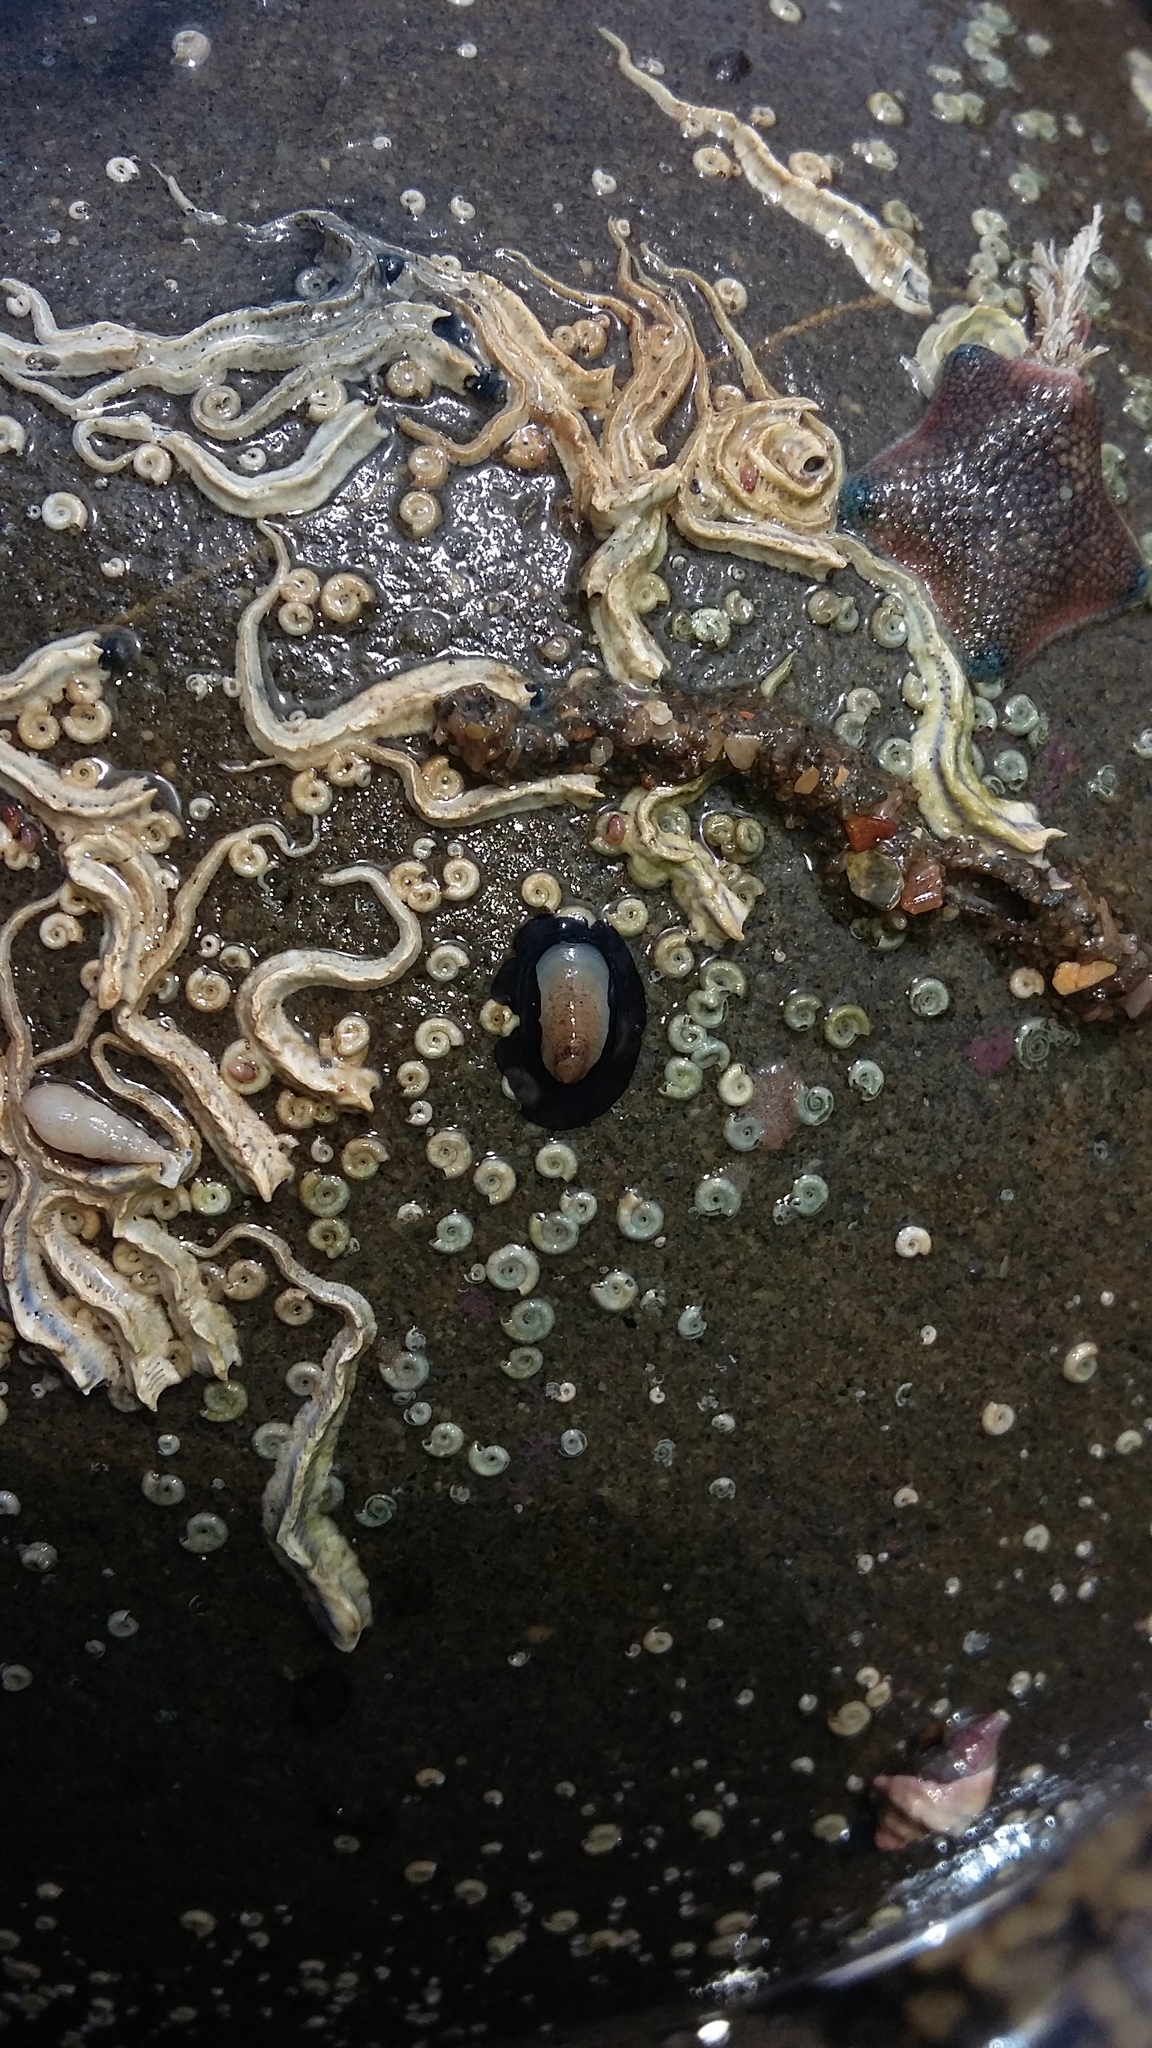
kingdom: Animalia
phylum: Mollusca
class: Gastropoda
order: Lepetellida
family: Fissurellidae
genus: Scutus
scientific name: Scutus breviculus
